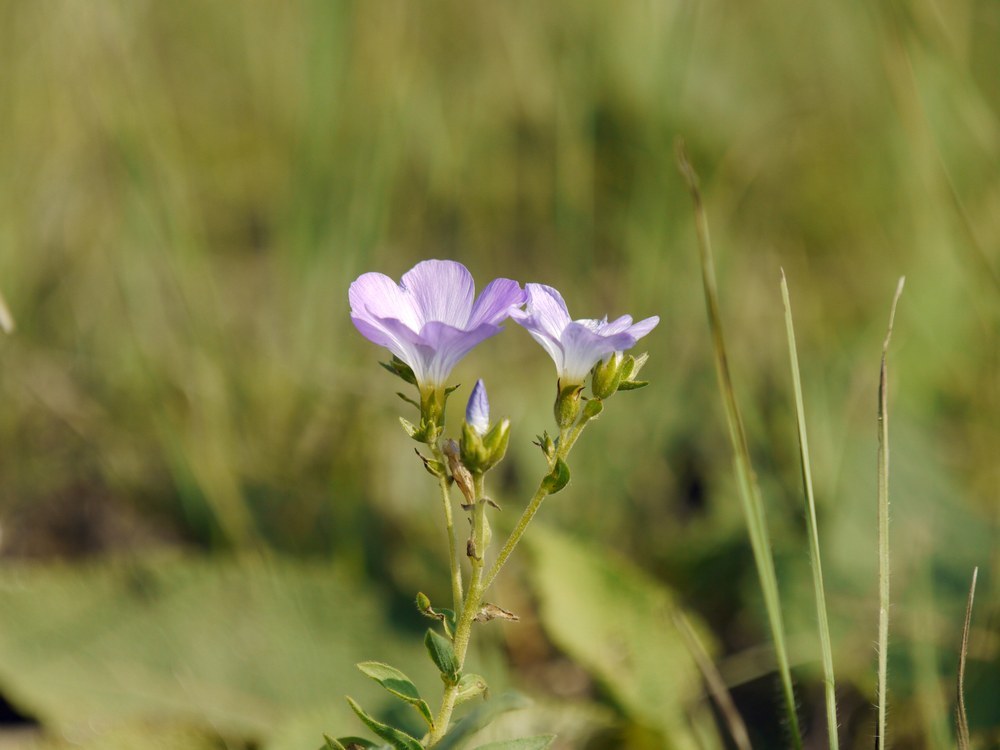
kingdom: Plantae
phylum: Tracheophyta
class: Magnoliopsida
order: Malpighiales
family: Linaceae
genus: Linum
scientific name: Linum hirsutum
